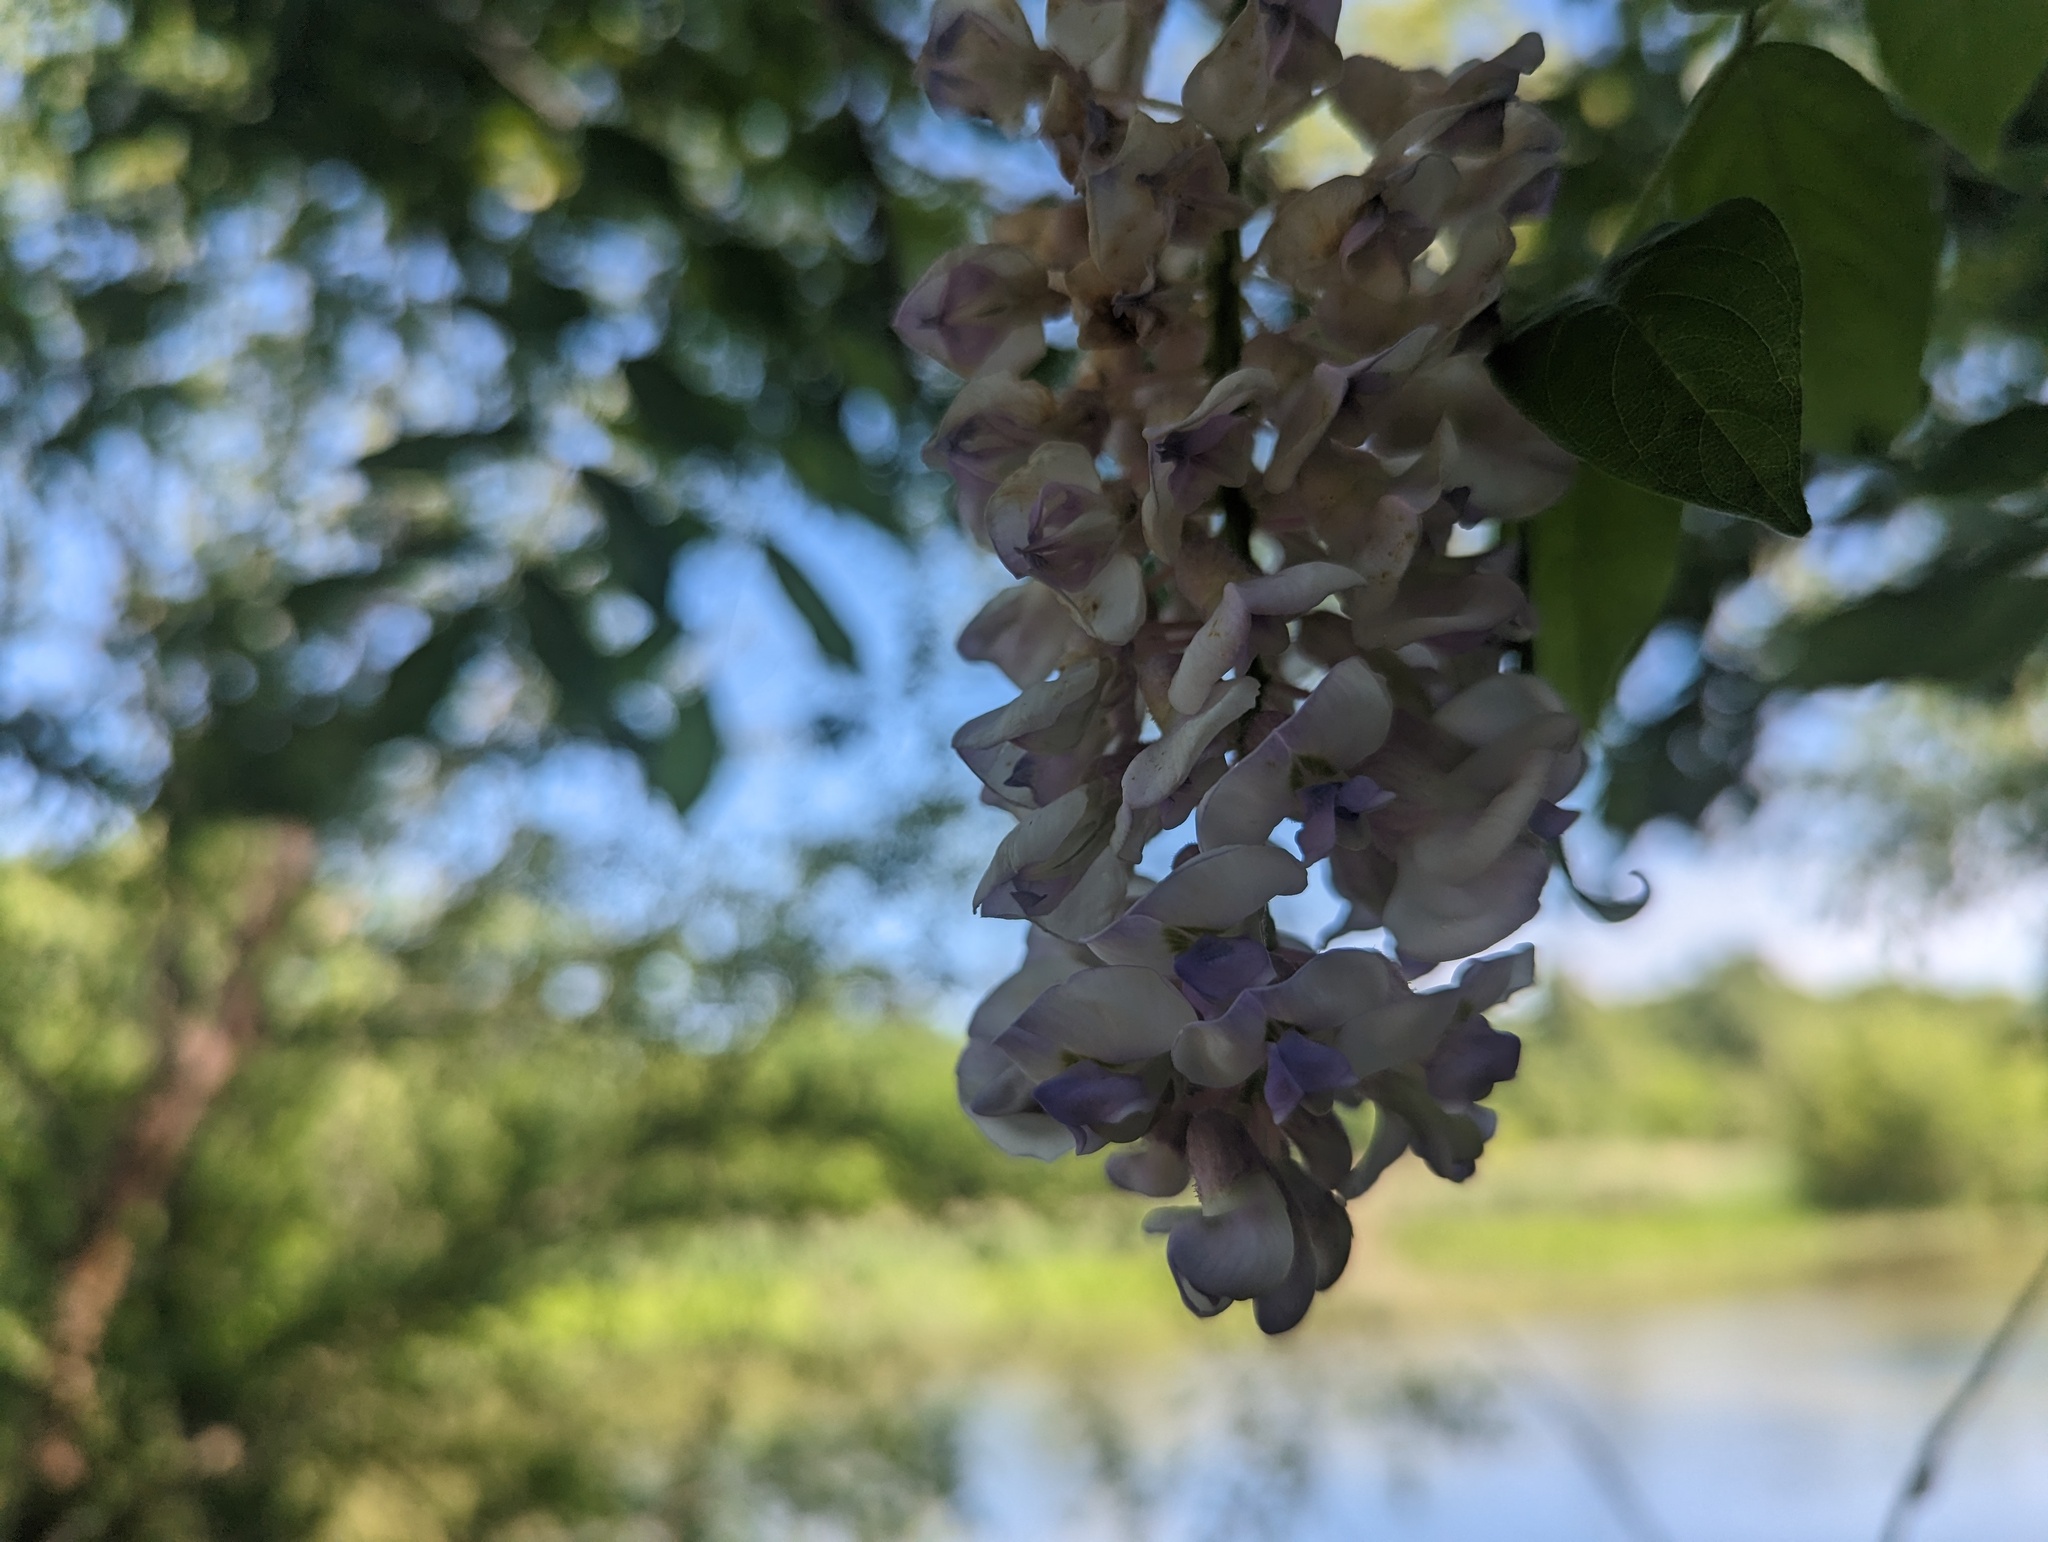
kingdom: Plantae
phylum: Tracheophyta
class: Magnoliopsida
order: Fabales
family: Fabaceae
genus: Wisteria
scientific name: Wisteria frutescens
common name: American wisteria
